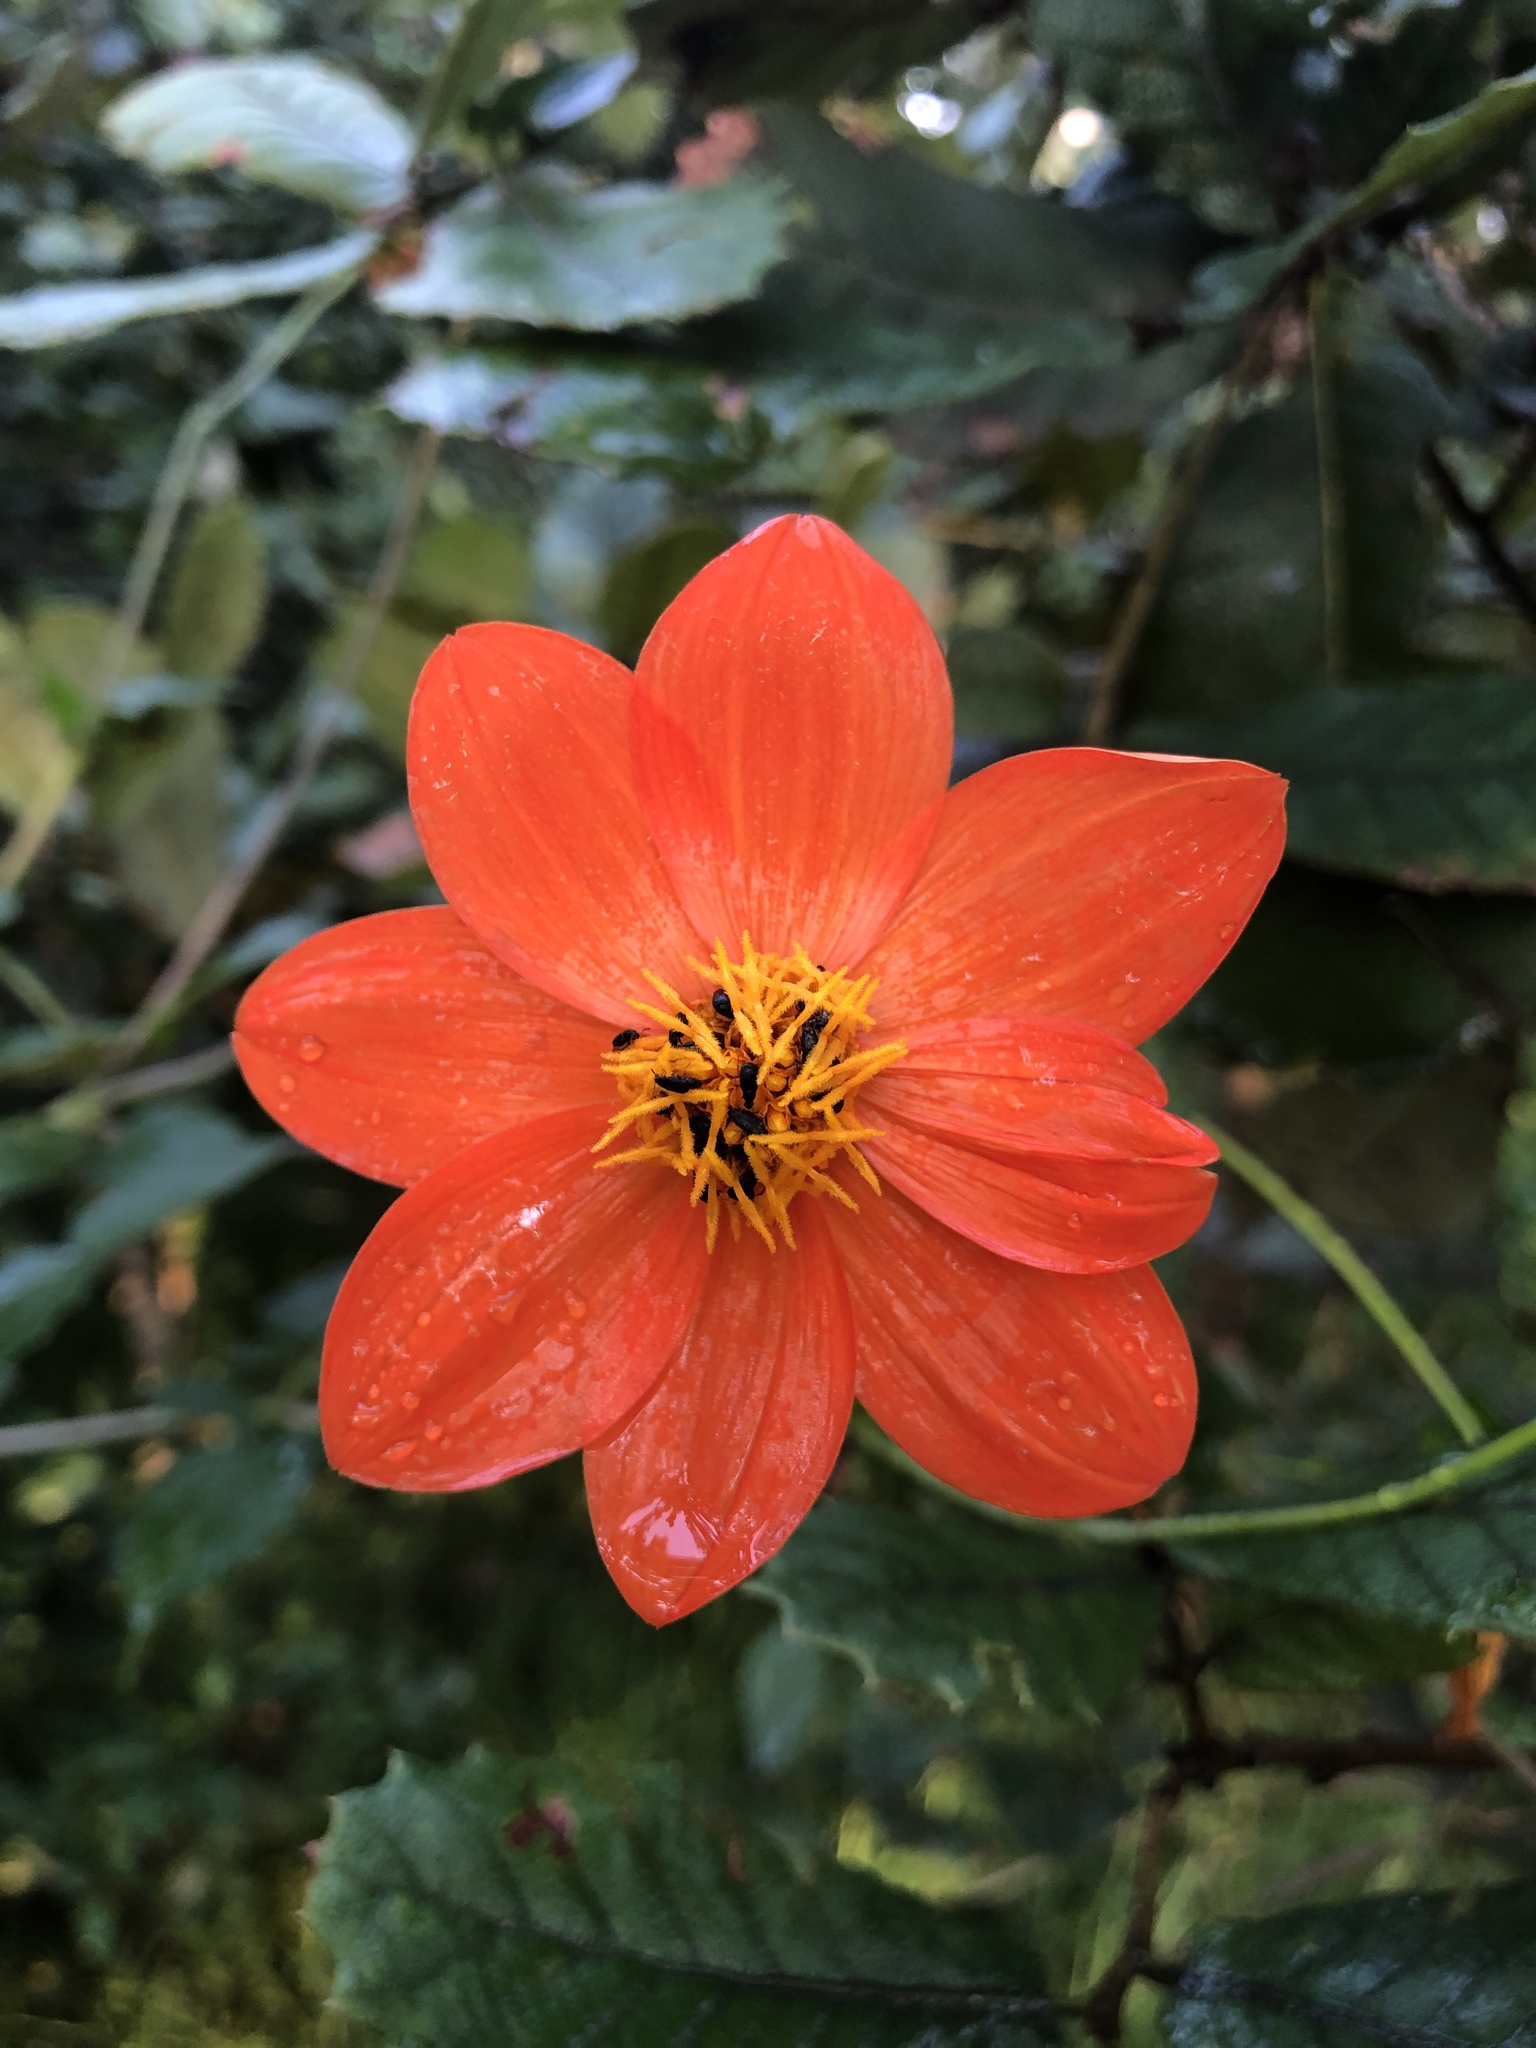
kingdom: Plantae
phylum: Tracheophyta
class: Magnoliopsida
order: Asterales
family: Asteraceae
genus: Dahlia
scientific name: Dahlia coccinea
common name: Red dahlia
